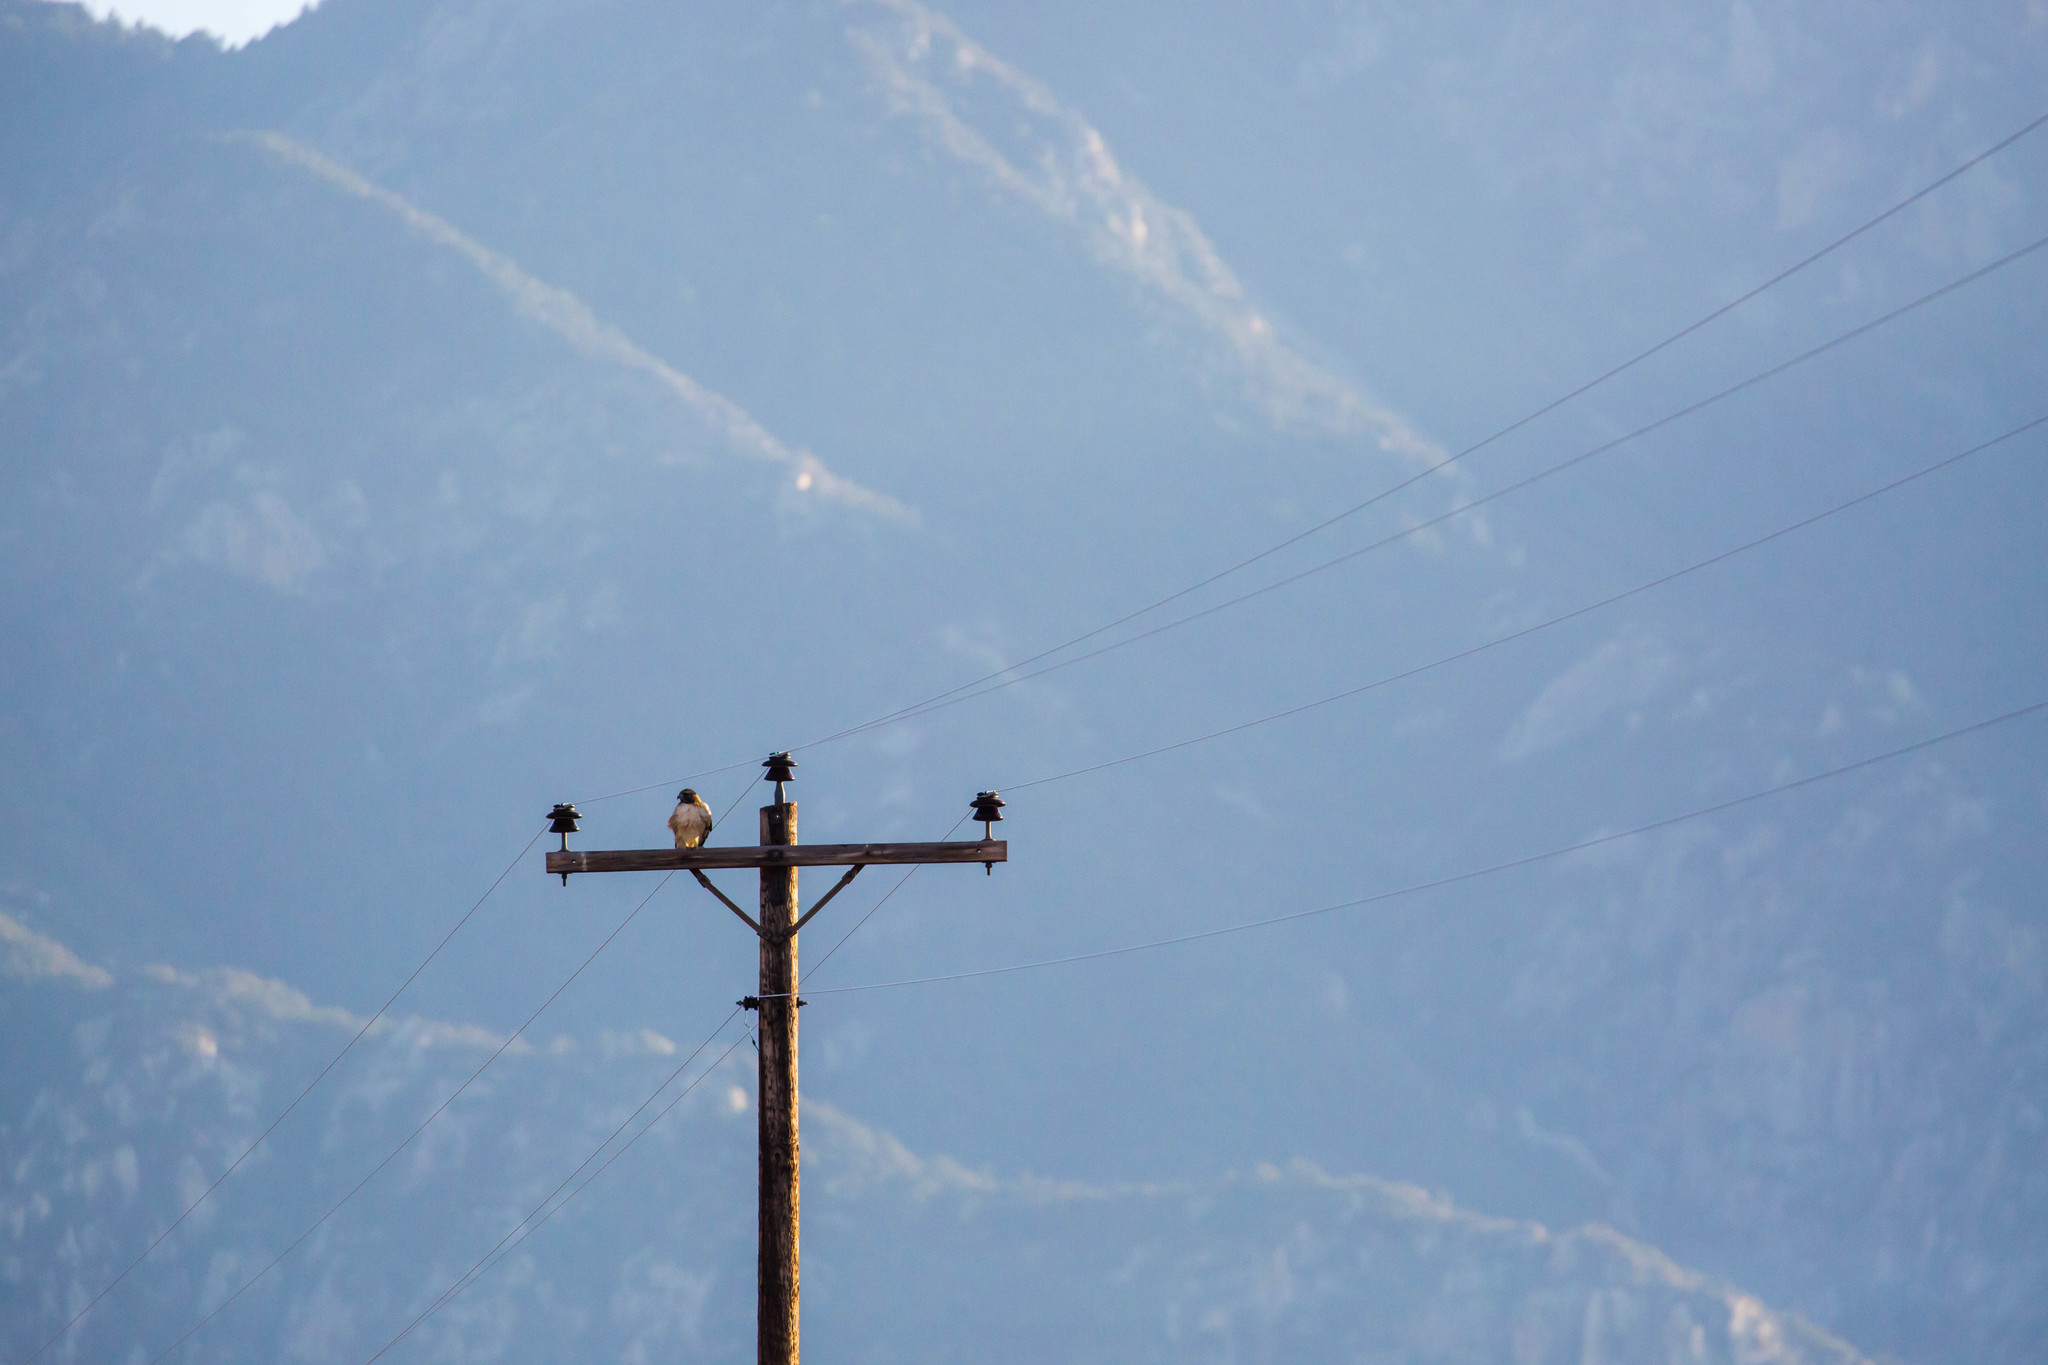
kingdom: Animalia
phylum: Chordata
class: Aves
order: Accipitriformes
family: Accipitridae
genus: Buteo
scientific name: Buteo jamaicensis
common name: Red-tailed hawk
